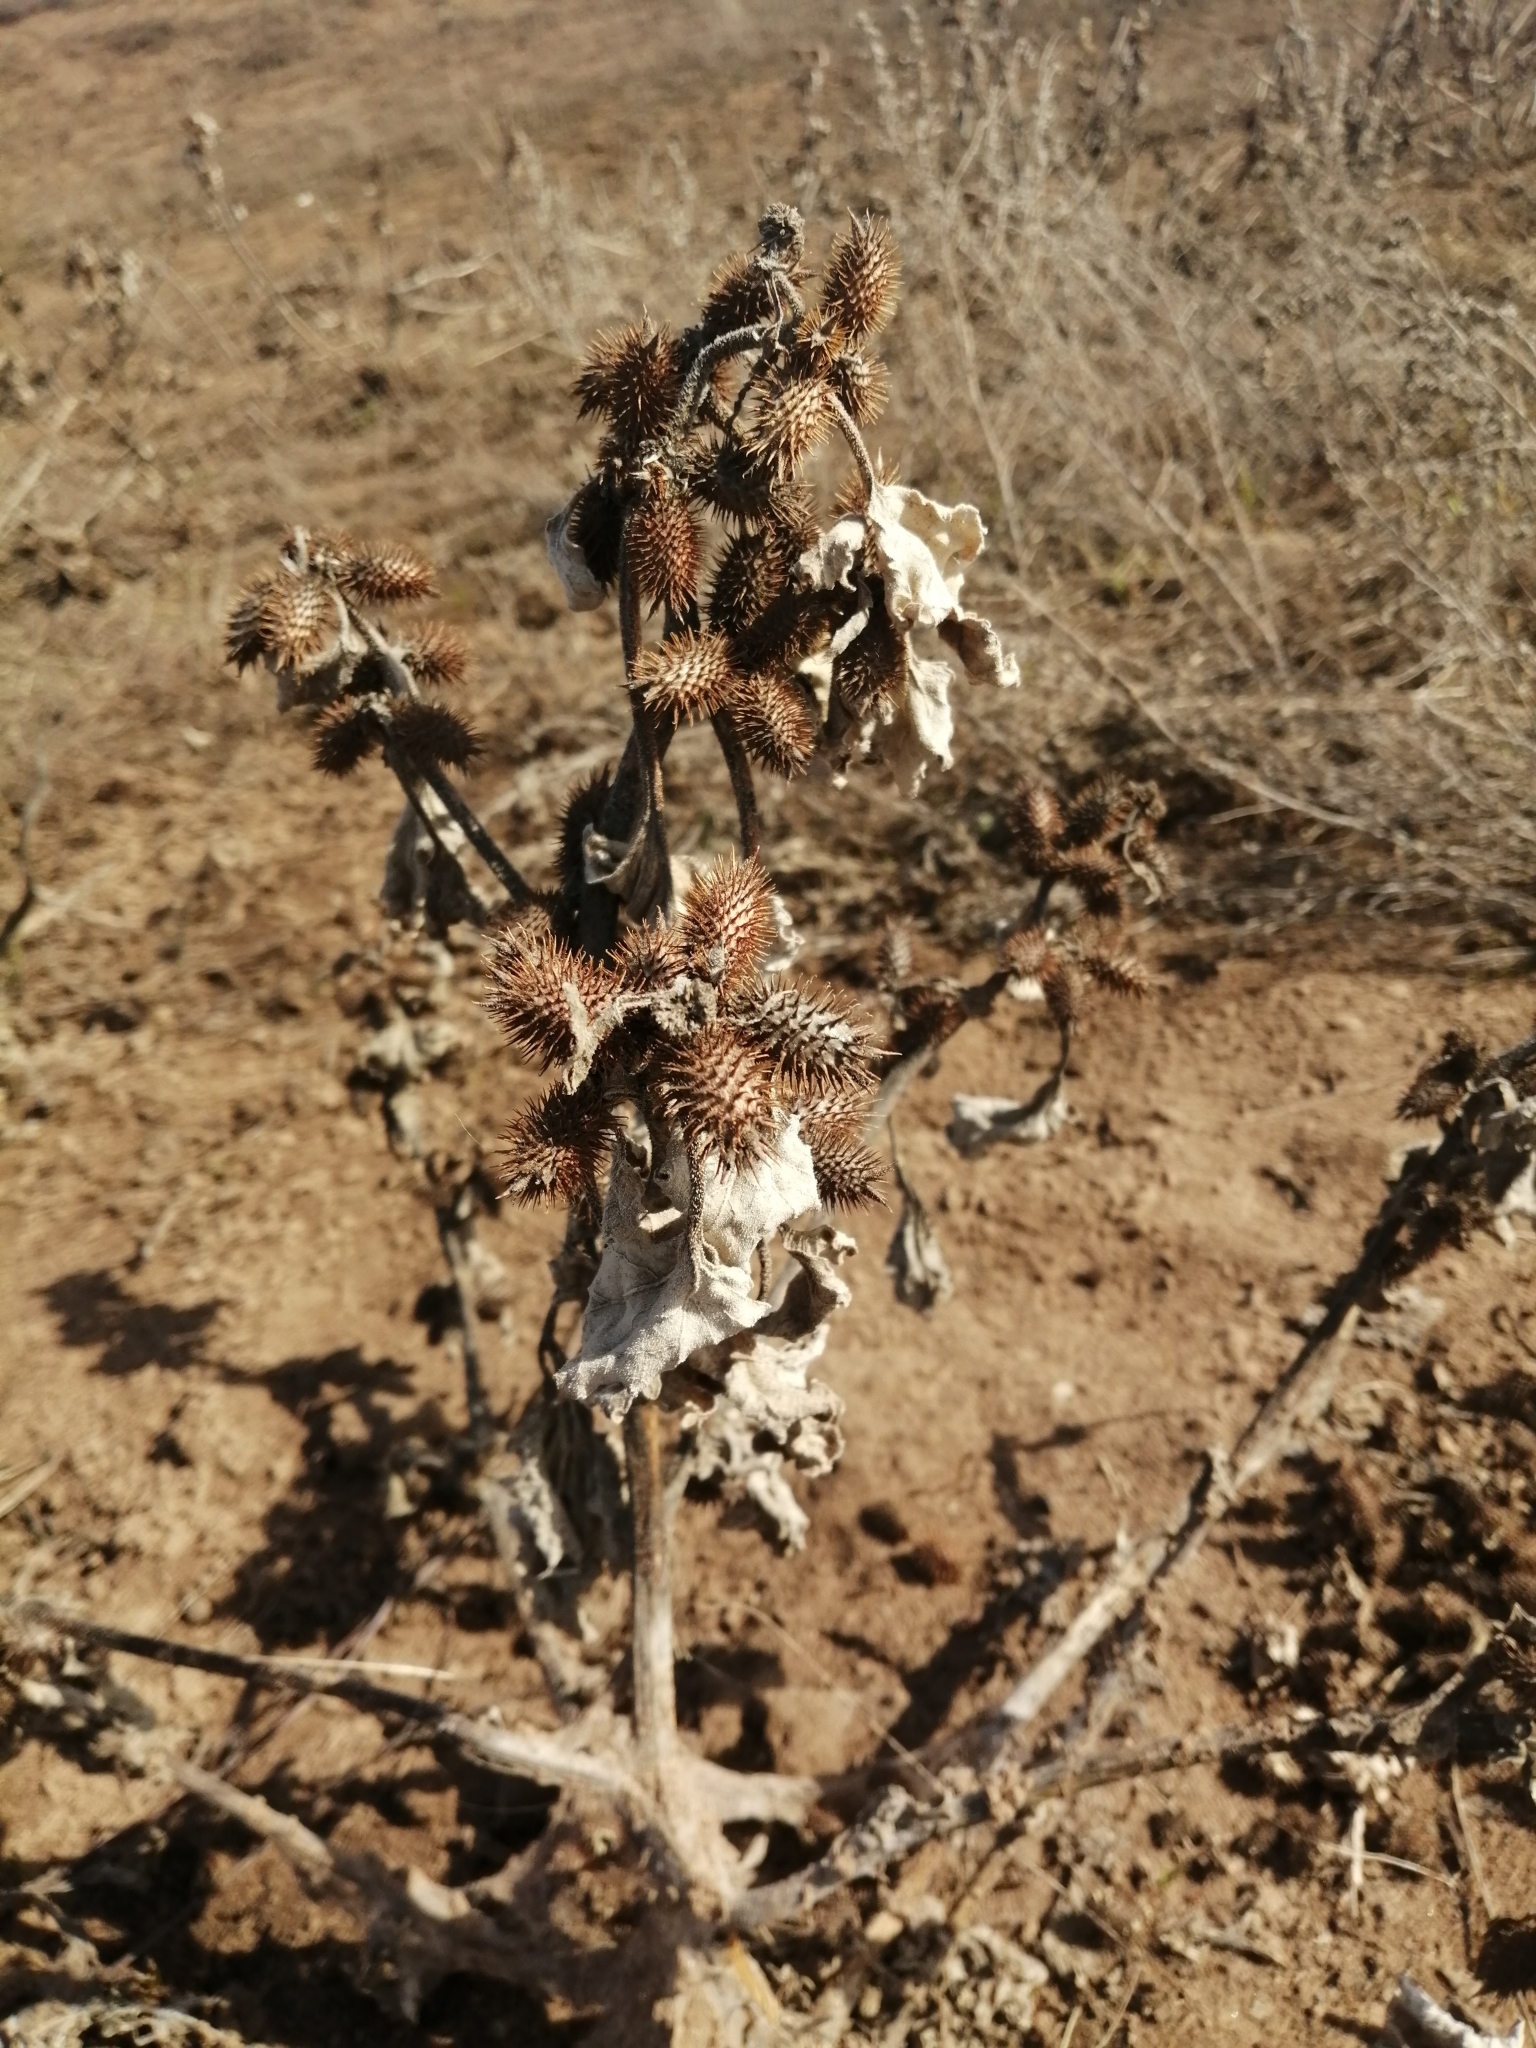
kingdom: Plantae
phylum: Tracheophyta
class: Magnoliopsida
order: Asterales
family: Asteraceae
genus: Xanthium
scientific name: Xanthium orientale
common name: Californian burr
